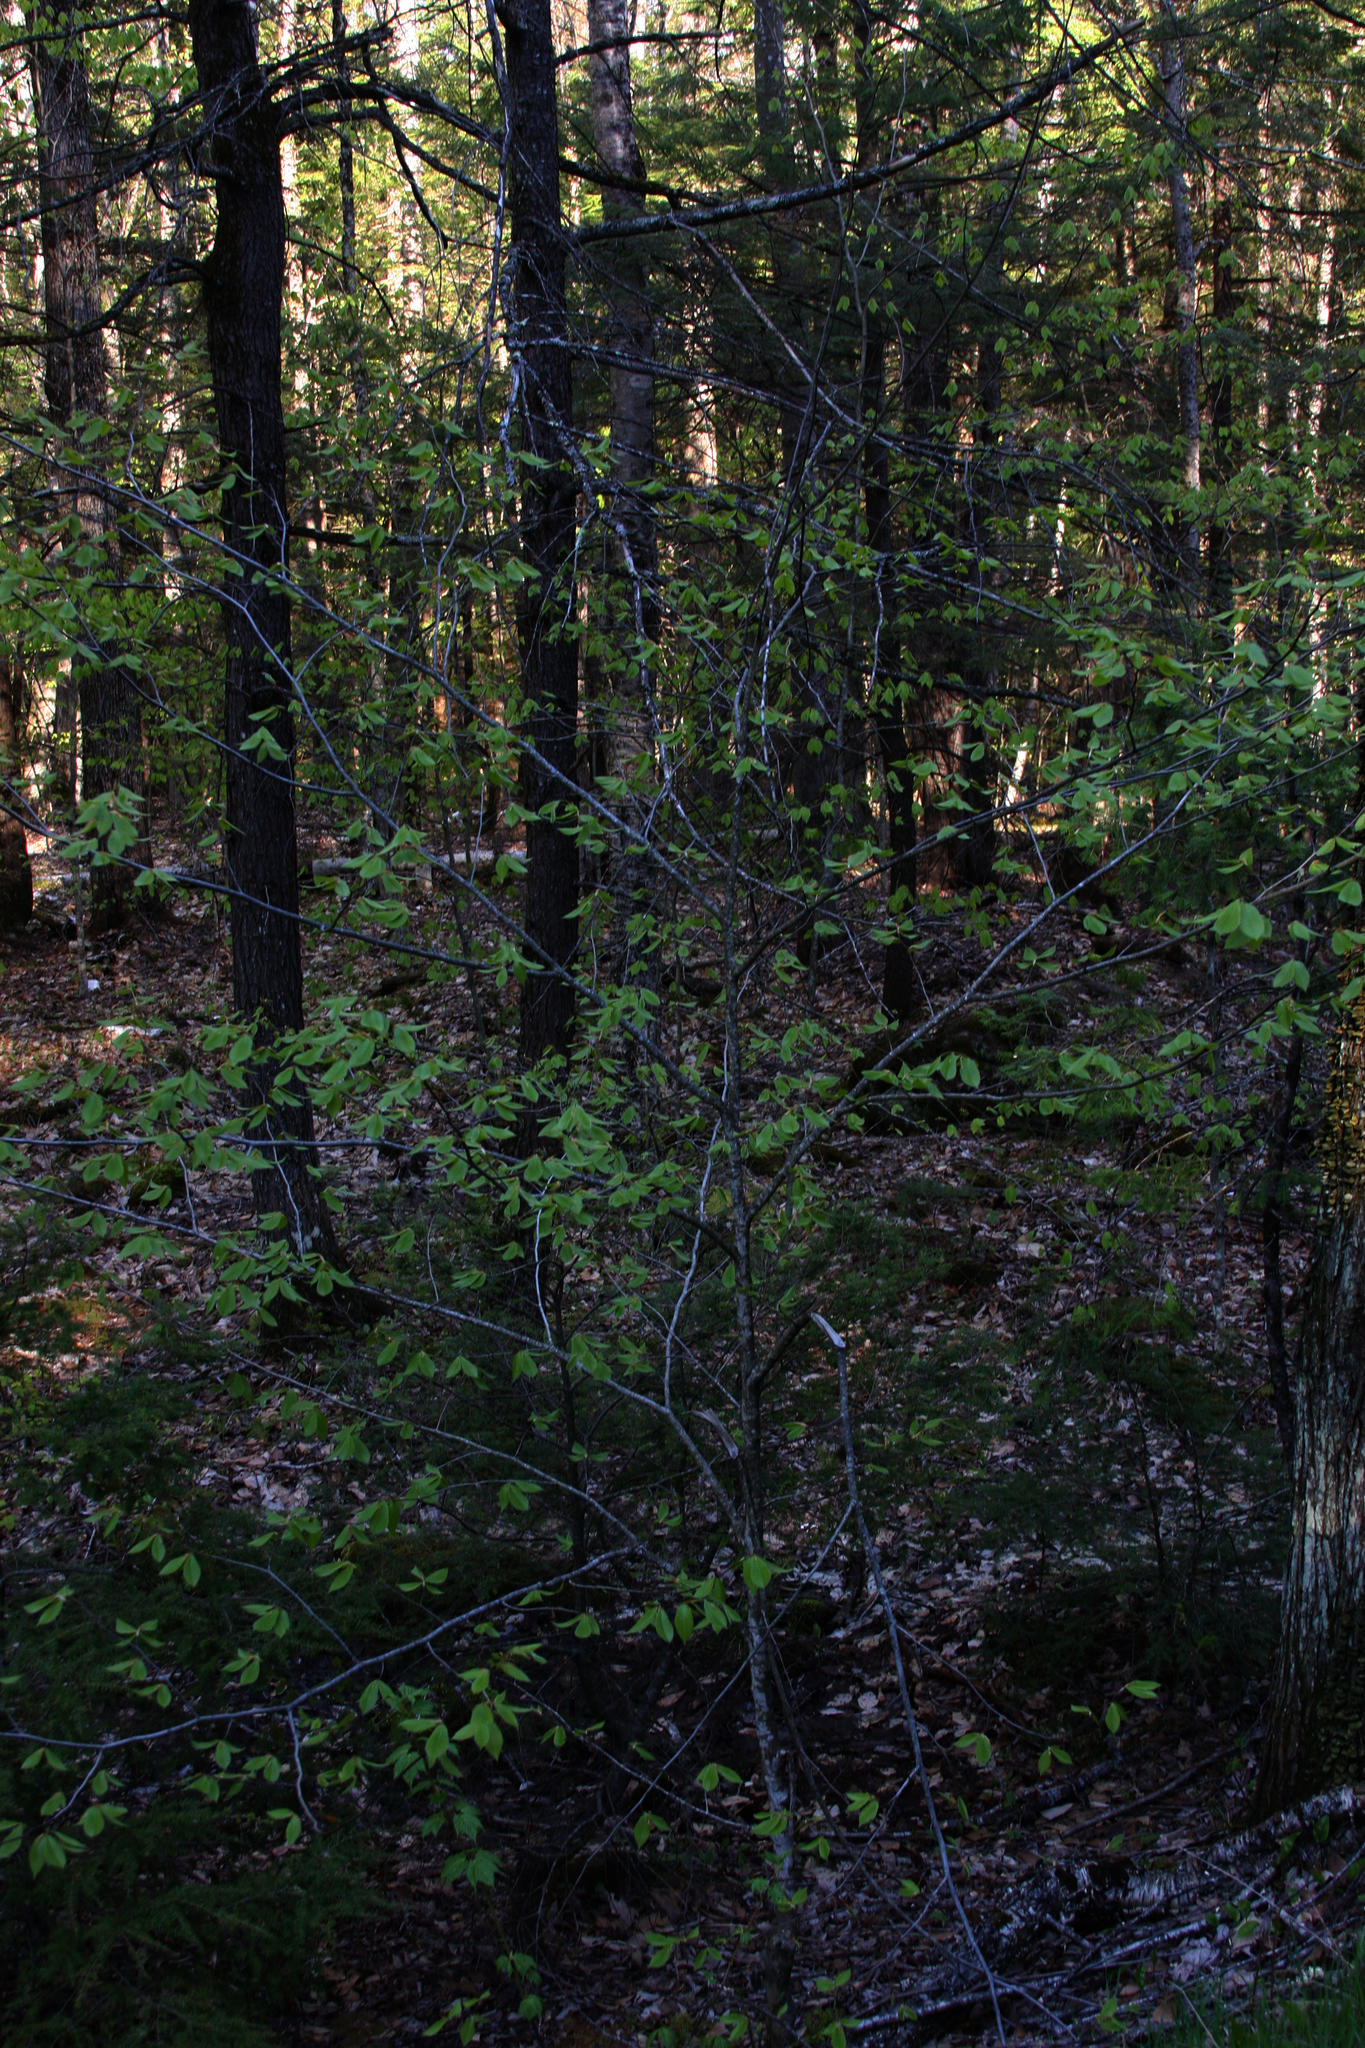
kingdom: Plantae
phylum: Tracheophyta
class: Magnoliopsida
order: Fagales
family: Fagaceae
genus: Fagus
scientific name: Fagus grandifolia
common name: American beech
